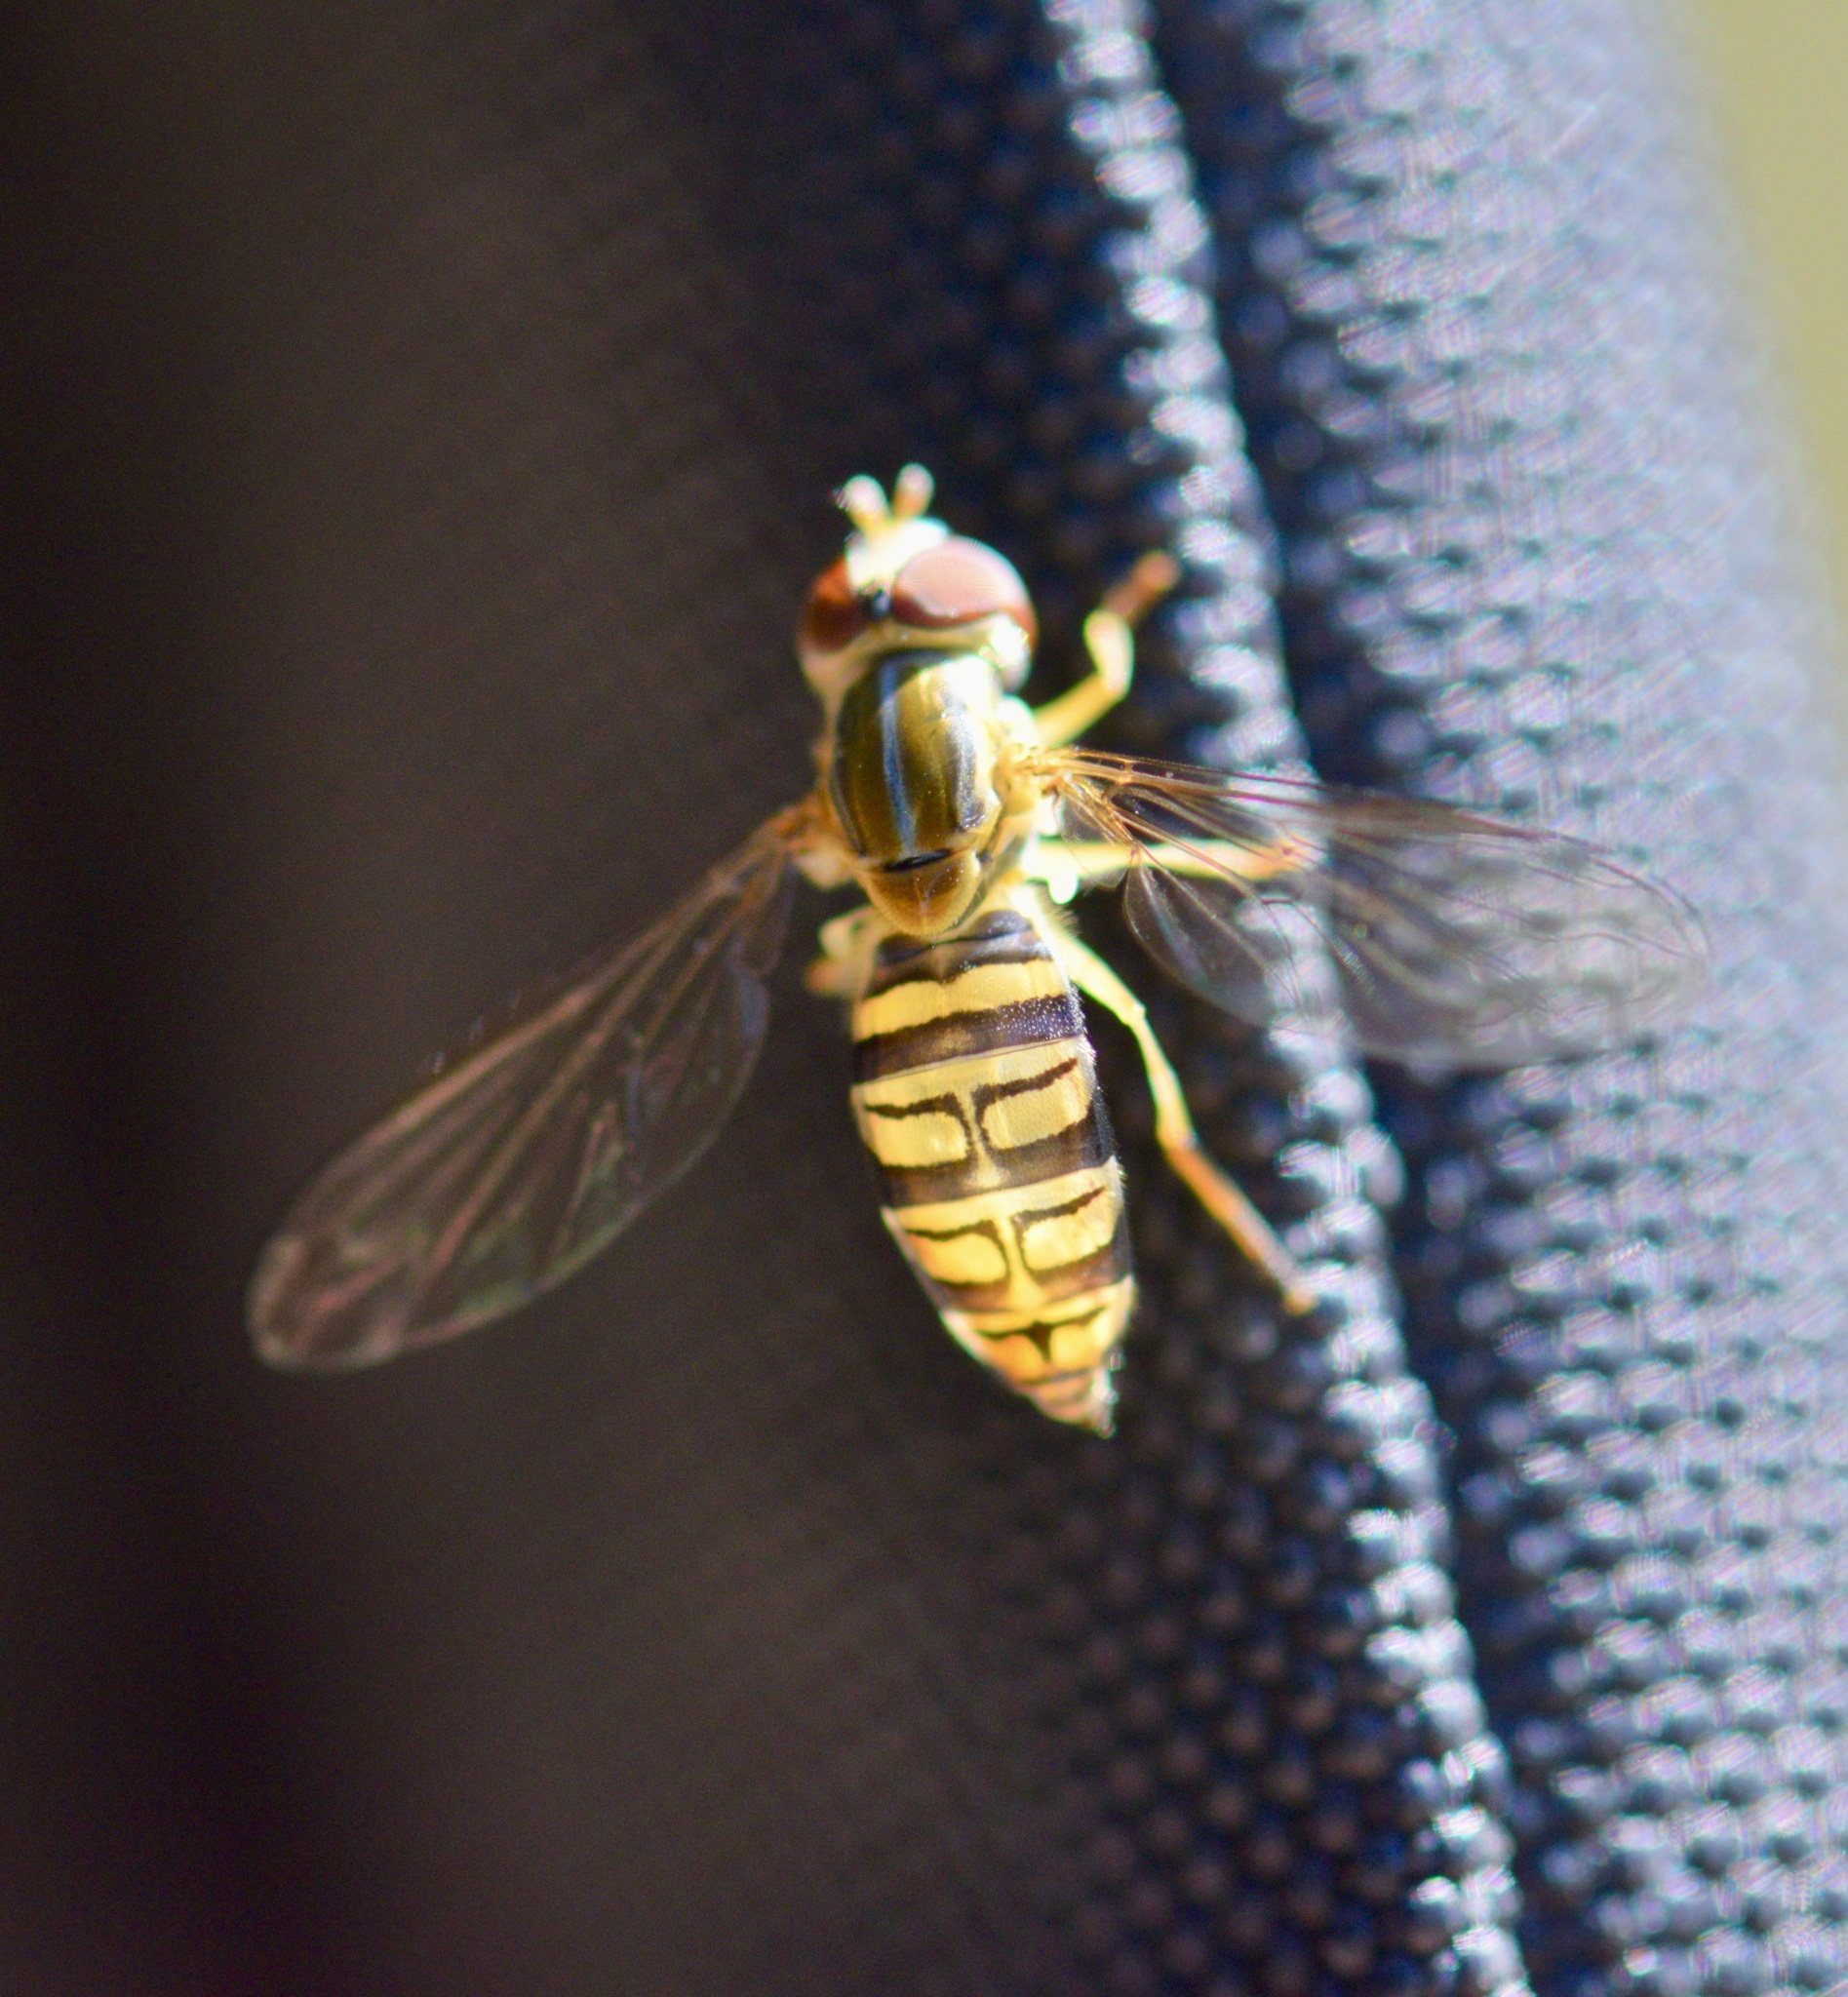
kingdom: Animalia
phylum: Arthropoda
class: Insecta
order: Diptera
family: Syrphidae
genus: Toxomerus
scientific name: Toxomerus politus
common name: Maize calligrapher
